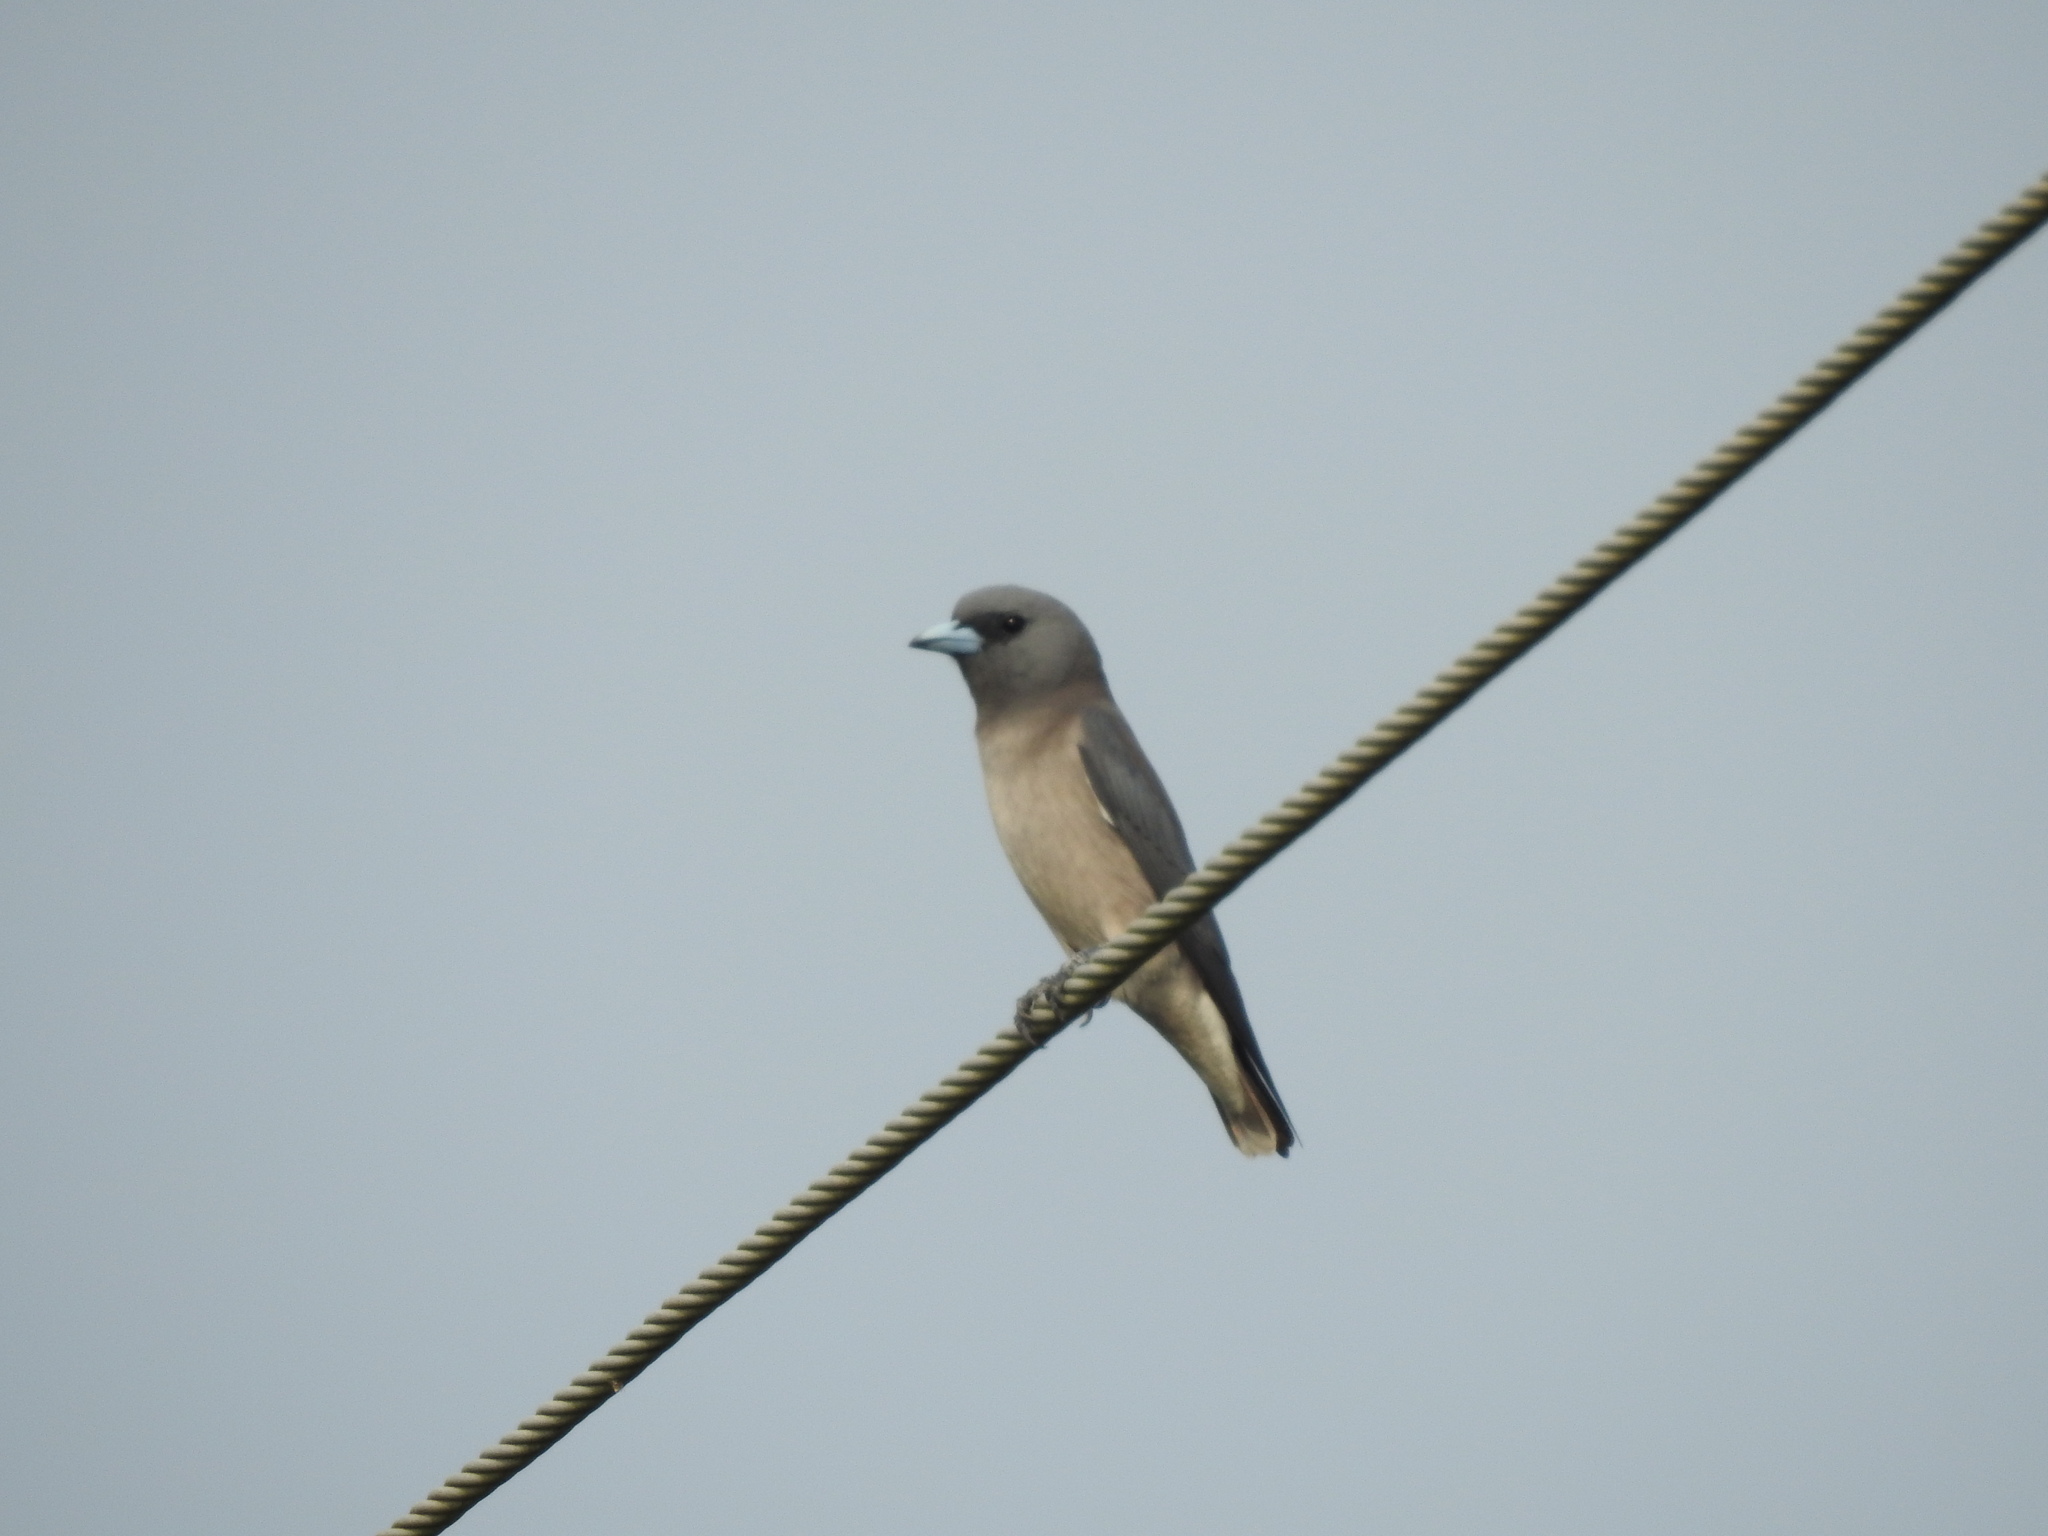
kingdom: Animalia
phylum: Chordata
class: Aves
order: Passeriformes
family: Artamidae
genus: Artamus
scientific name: Artamus fuscus
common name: Ashy woodswallow
